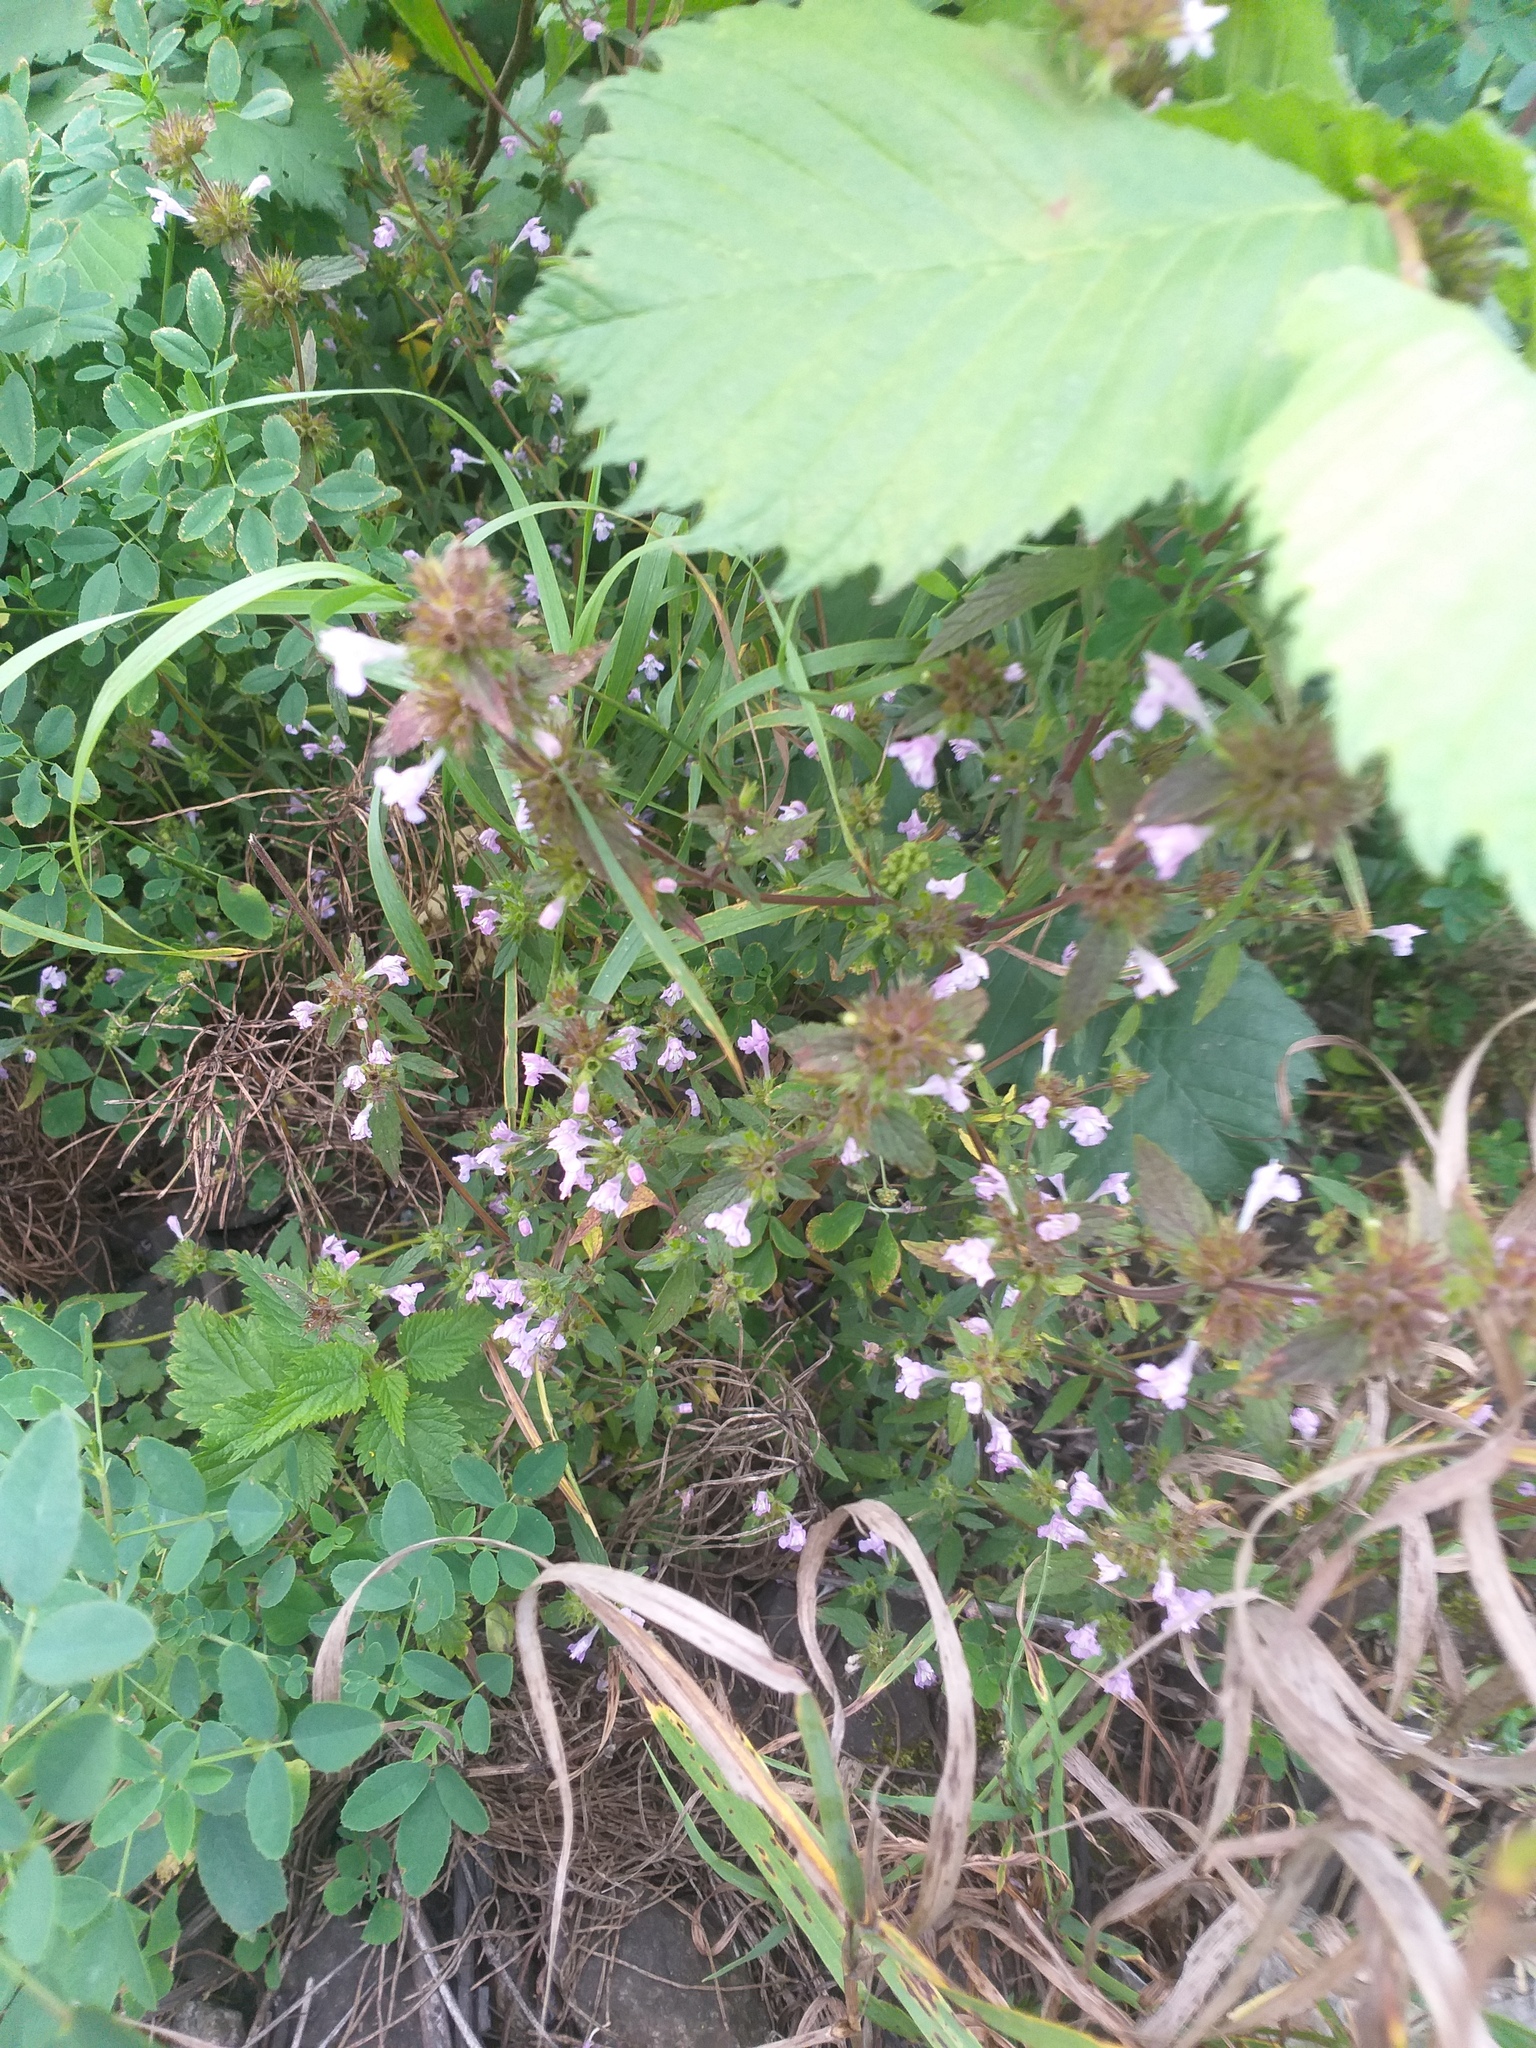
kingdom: Plantae
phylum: Tracheophyta
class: Magnoliopsida
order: Lamiales
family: Lamiaceae
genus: Ballota
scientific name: Ballota nigra
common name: Black horehound
